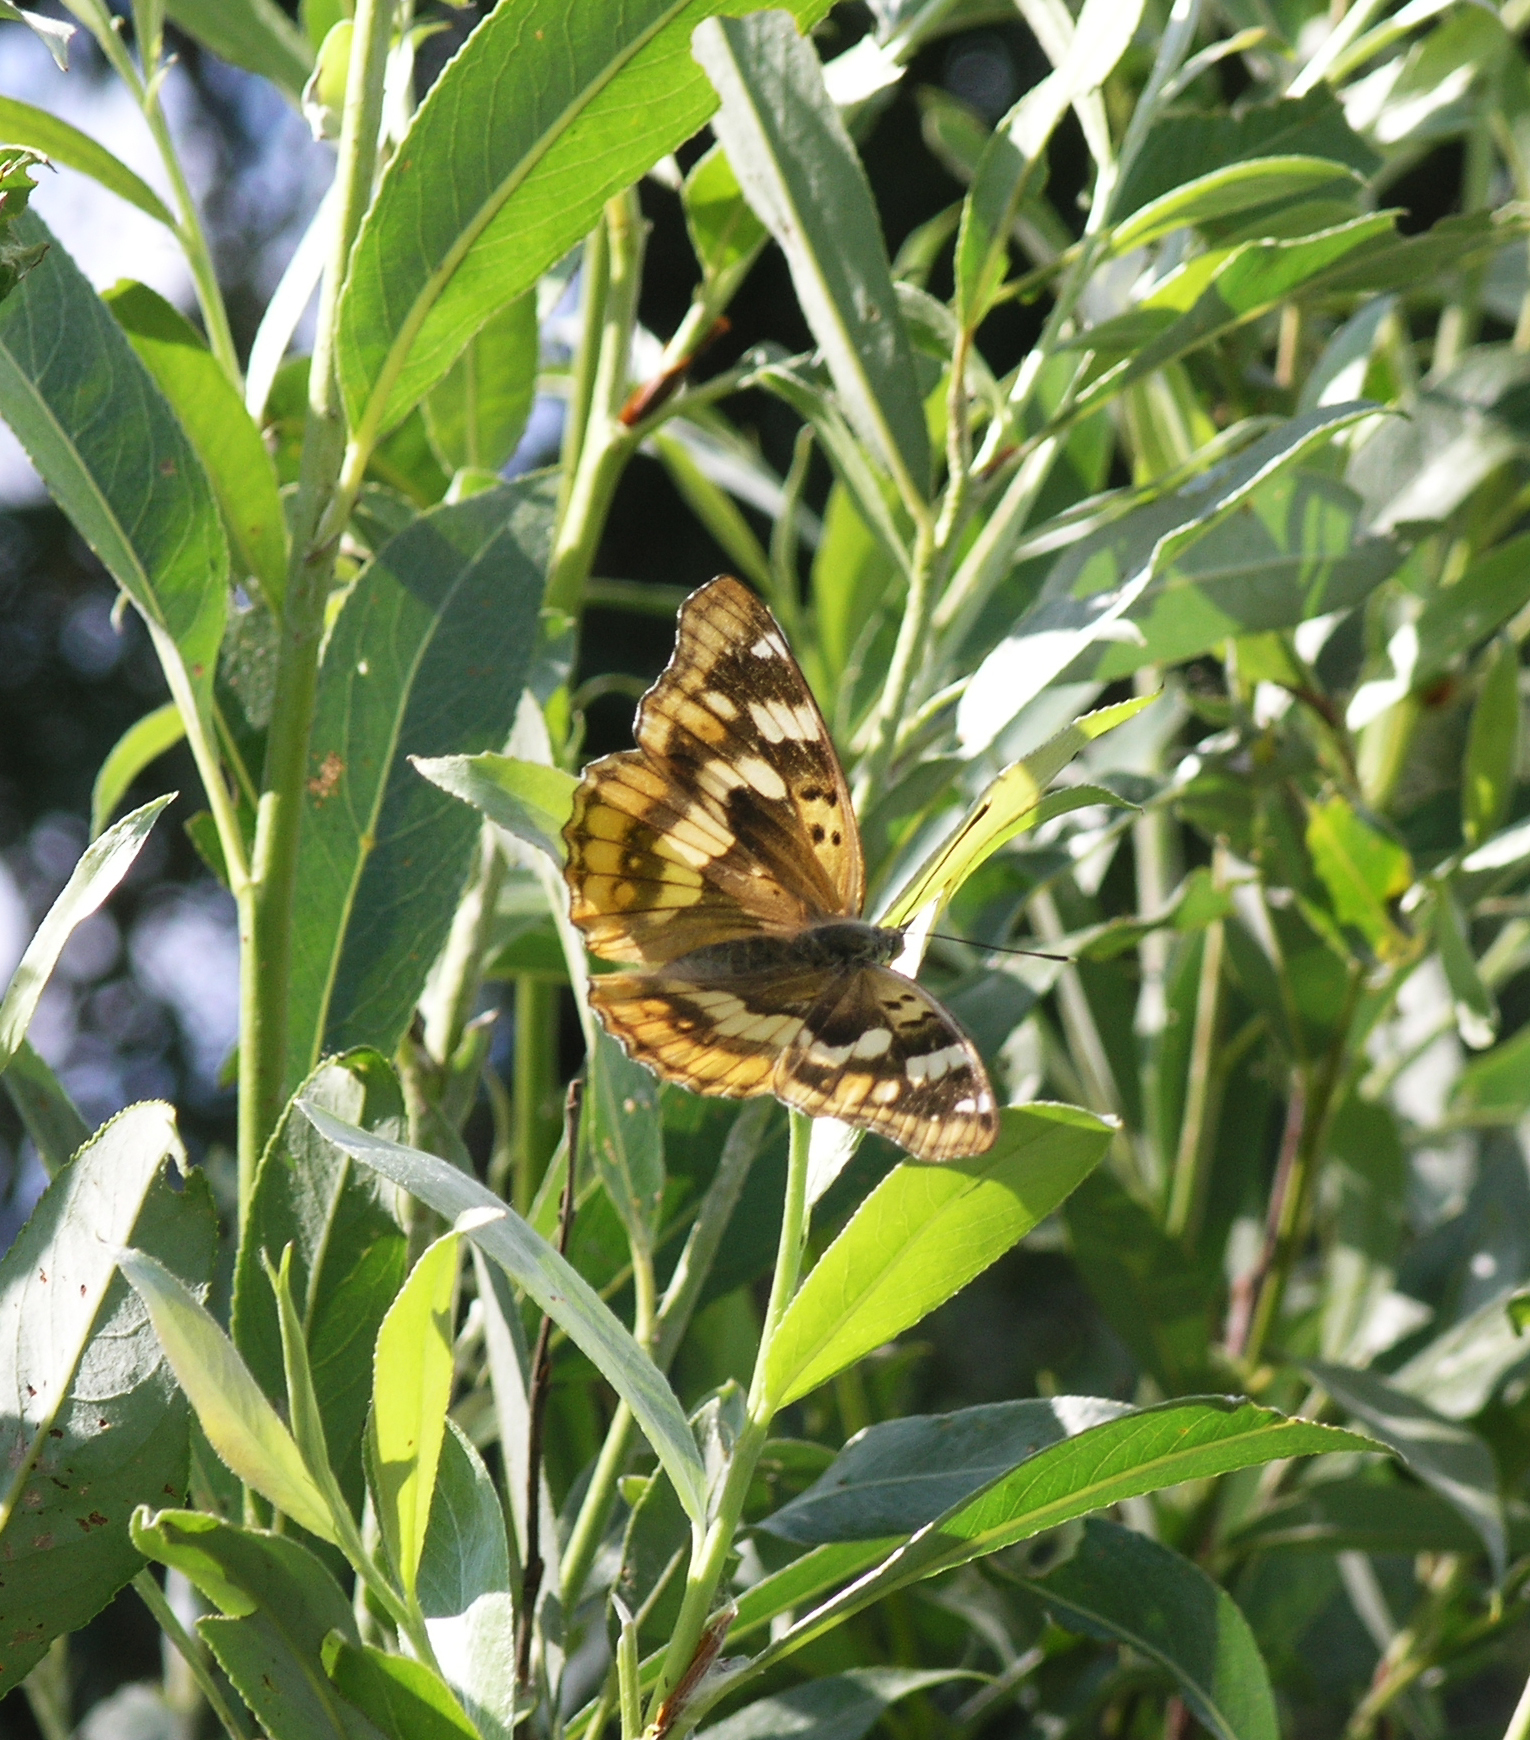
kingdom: Animalia
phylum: Arthropoda
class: Insecta
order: Lepidoptera
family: Nymphalidae
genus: Apatura
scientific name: Apatura ilia
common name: Lesser purple emperor
